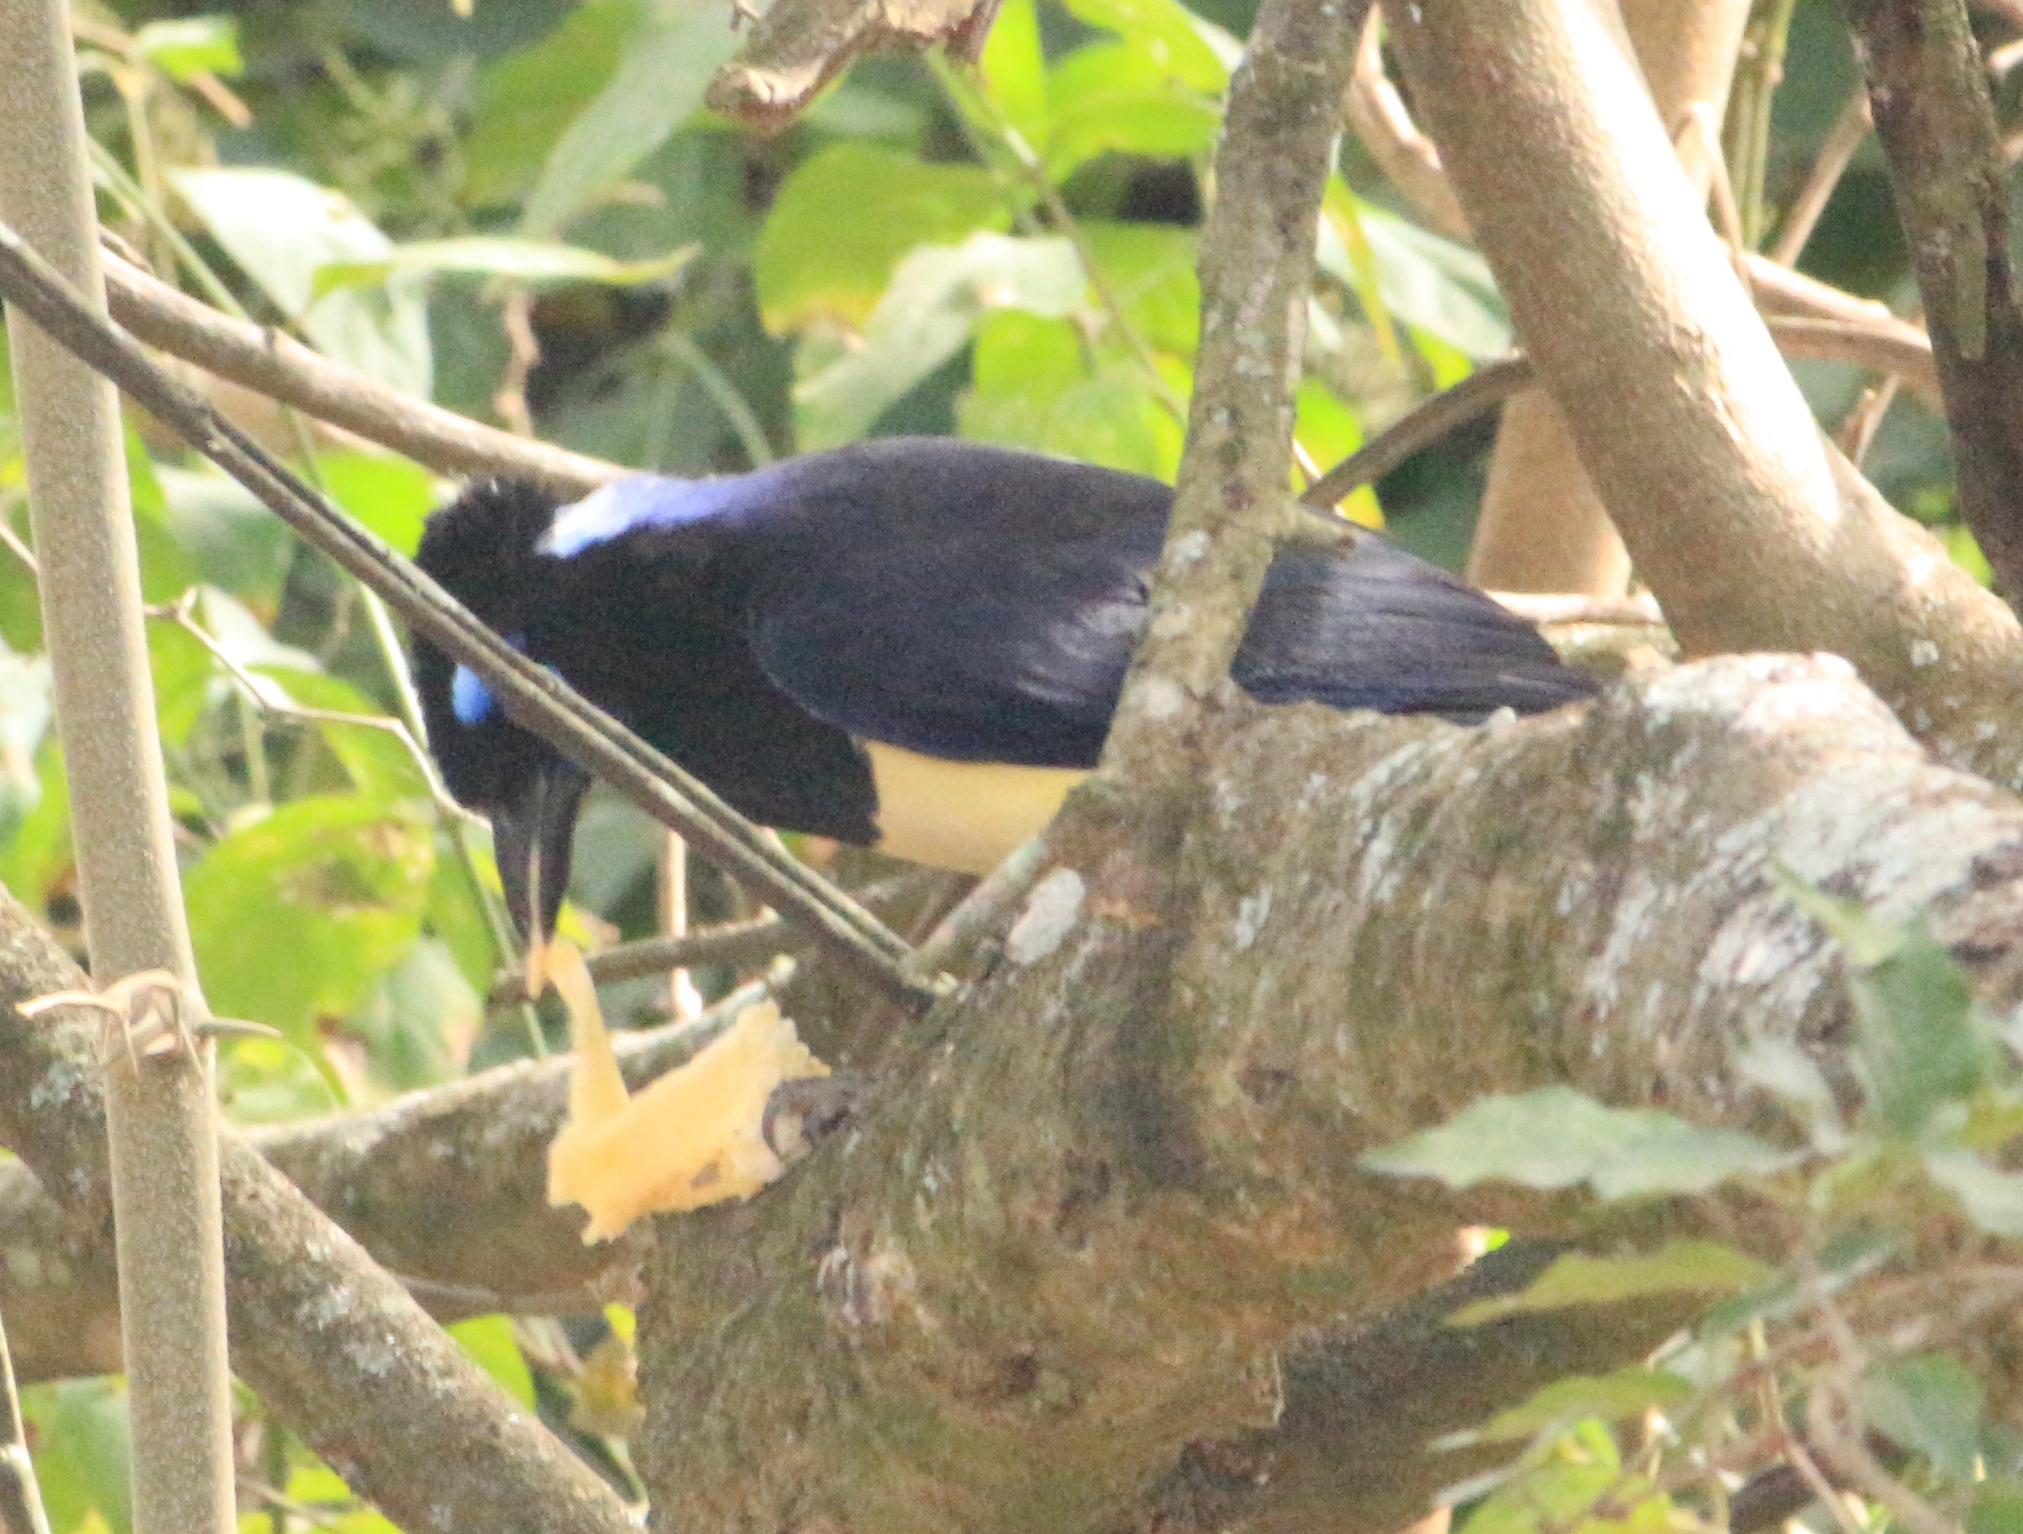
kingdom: Animalia
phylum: Chordata
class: Aves
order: Passeriformes
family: Corvidae
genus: Cyanocorax
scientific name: Cyanocorax chrysops
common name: Plush-crested jay
